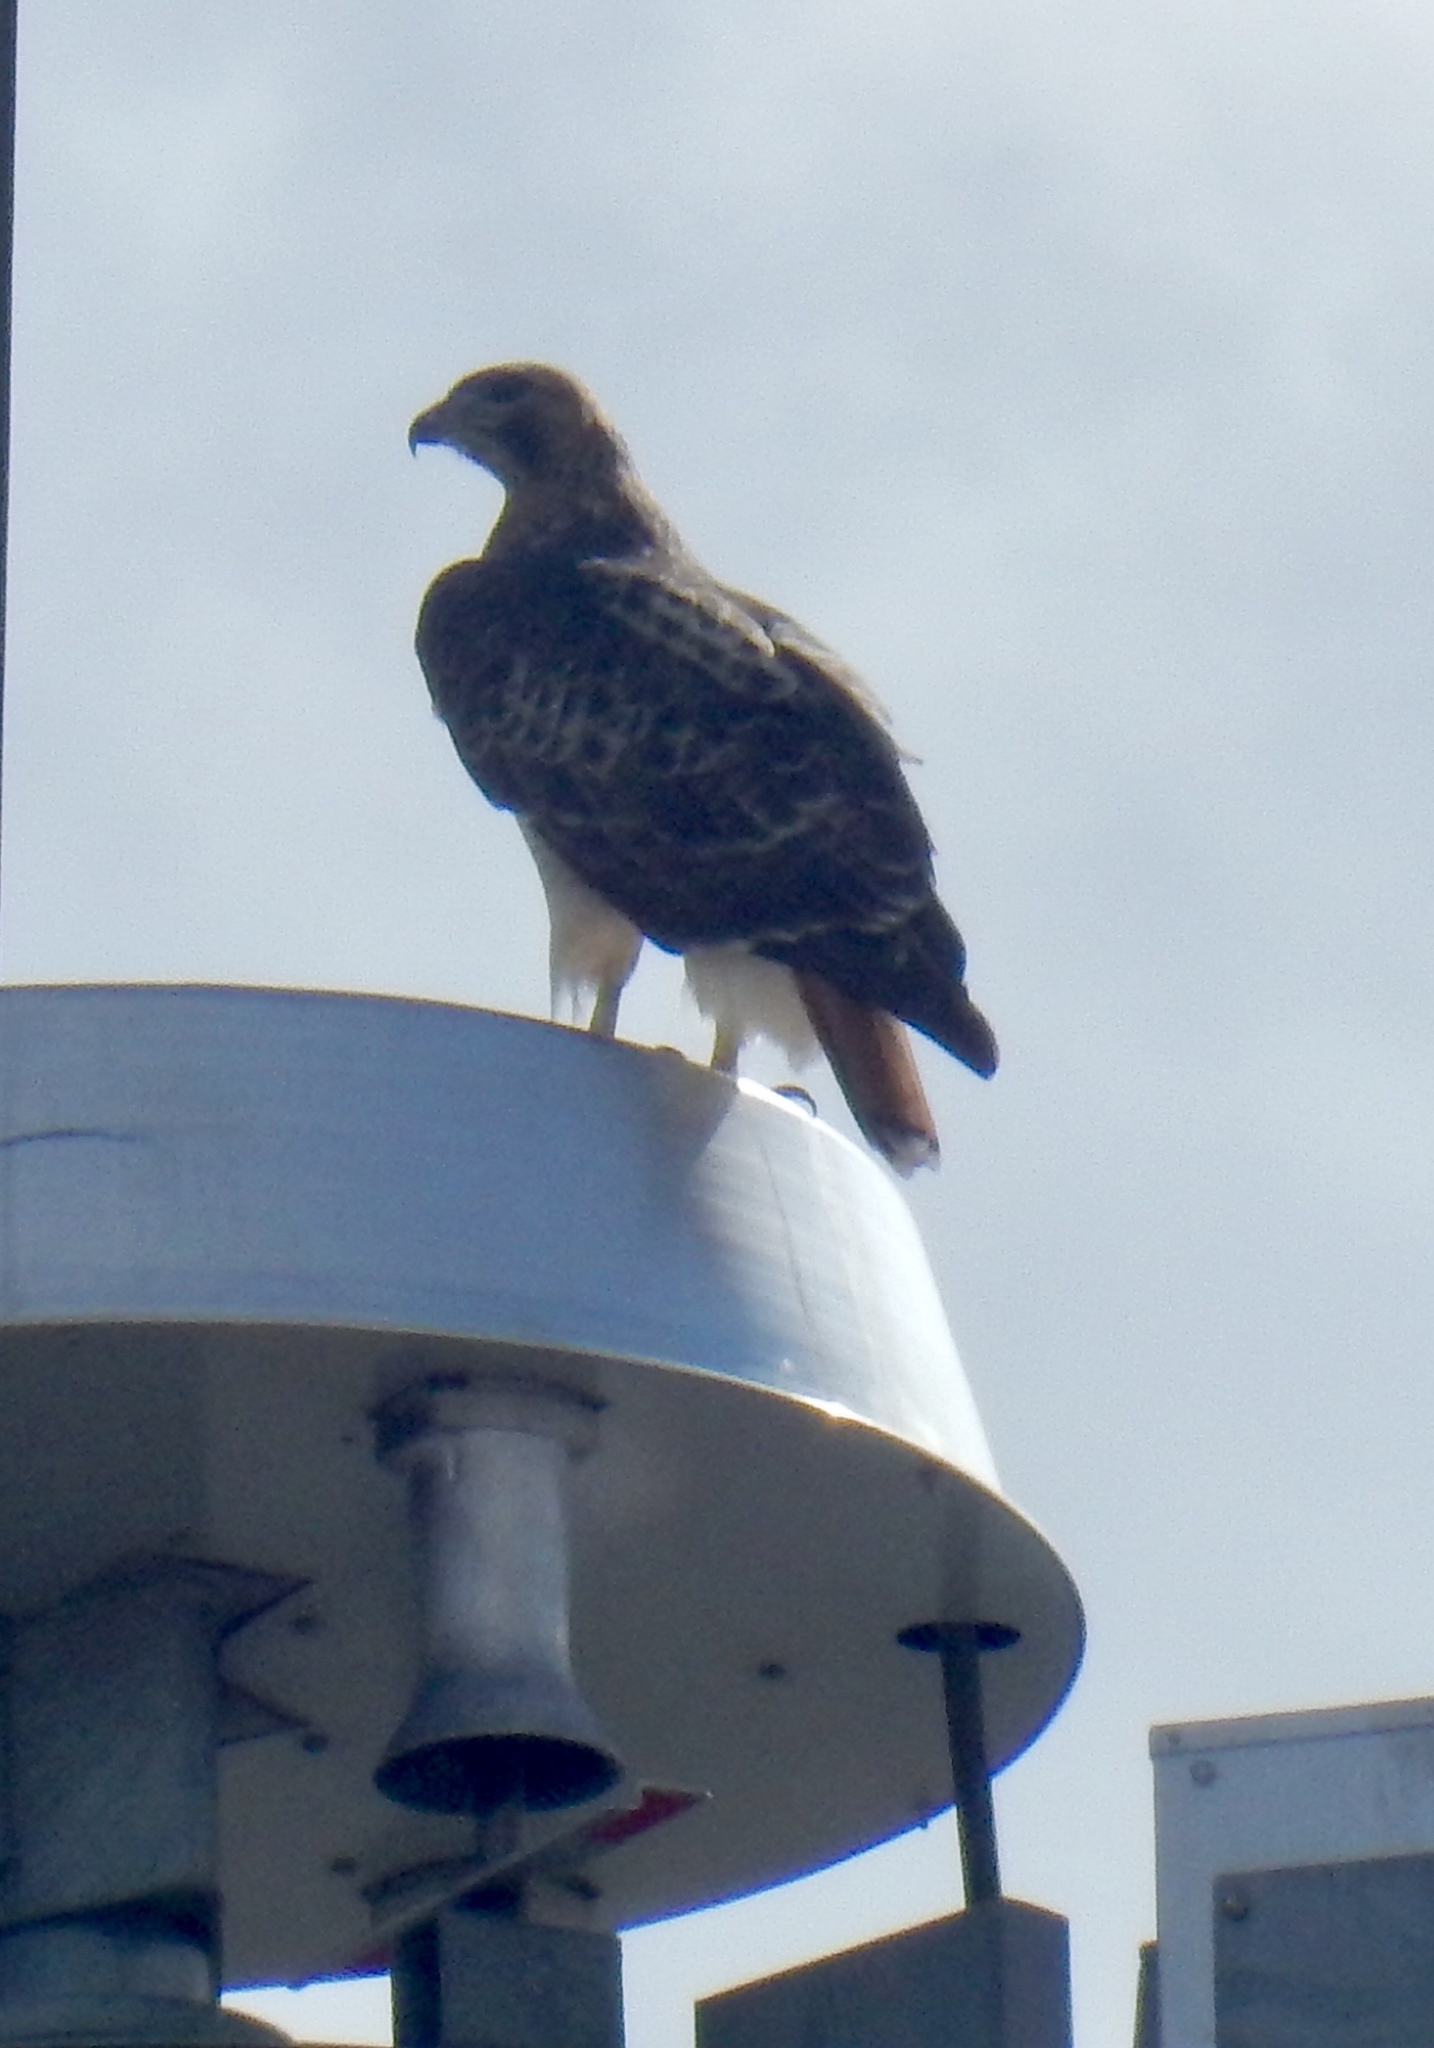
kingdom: Animalia
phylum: Chordata
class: Aves
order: Accipitriformes
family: Accipitridae
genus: Buteo
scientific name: Buteo jamaicensis
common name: Red-tailed hawk
